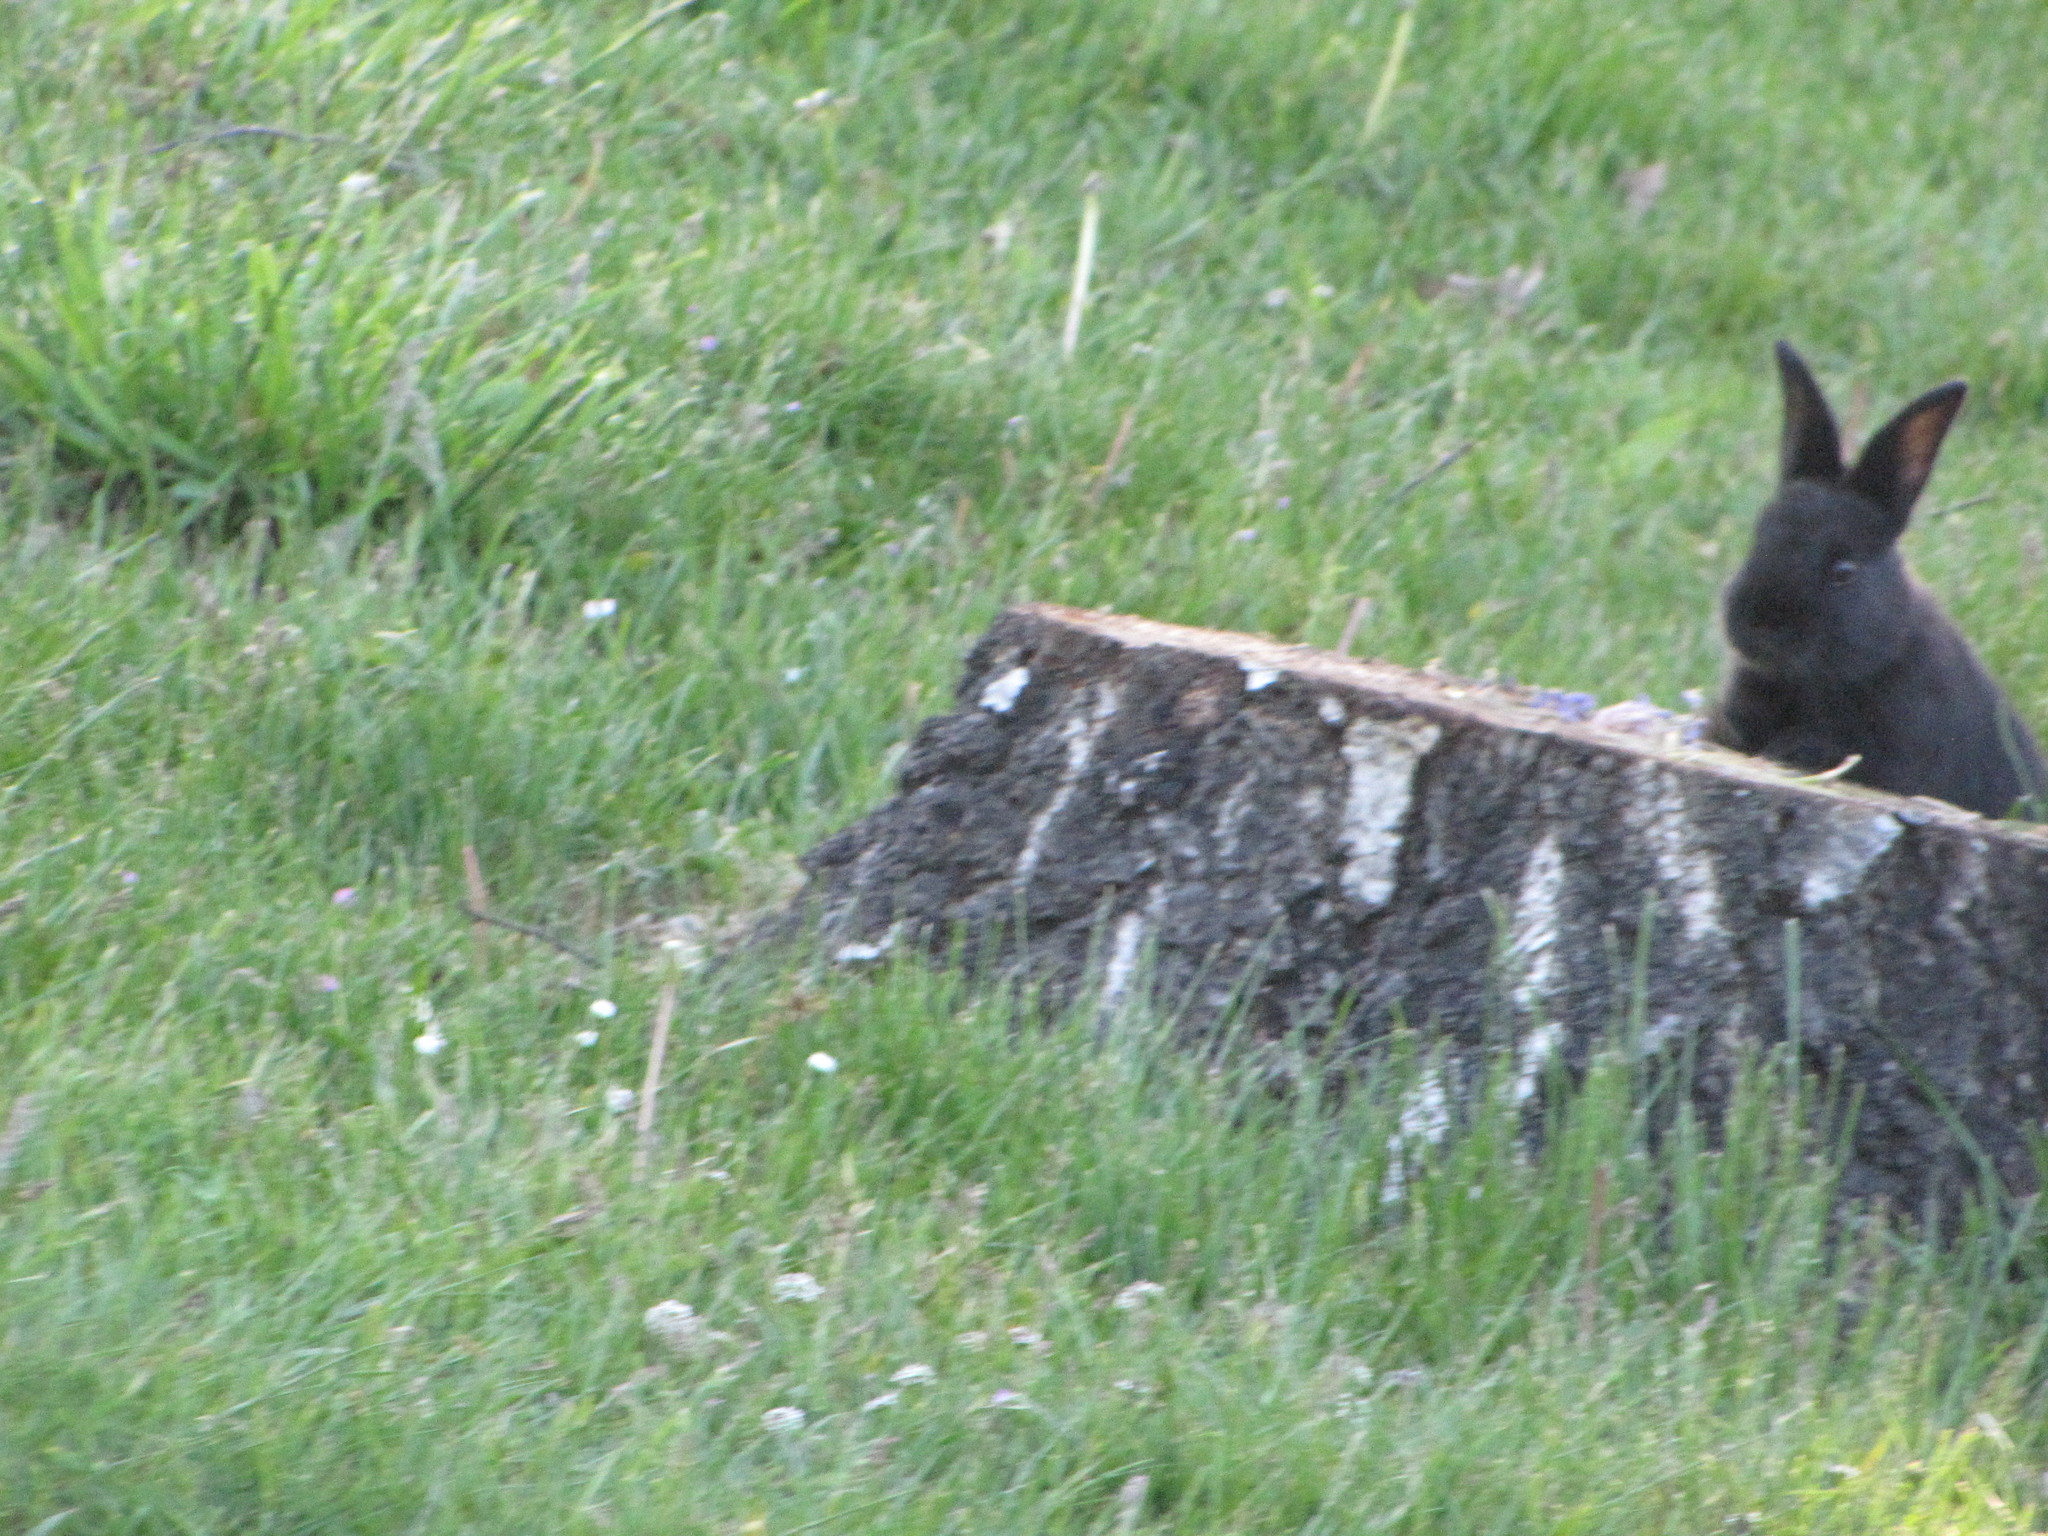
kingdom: Animalia
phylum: Chordata
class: Mammalia
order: Lagomorpha
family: Leporidae
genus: Oryctolagus
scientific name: Oryctolagus cuniculus
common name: European rabbit
